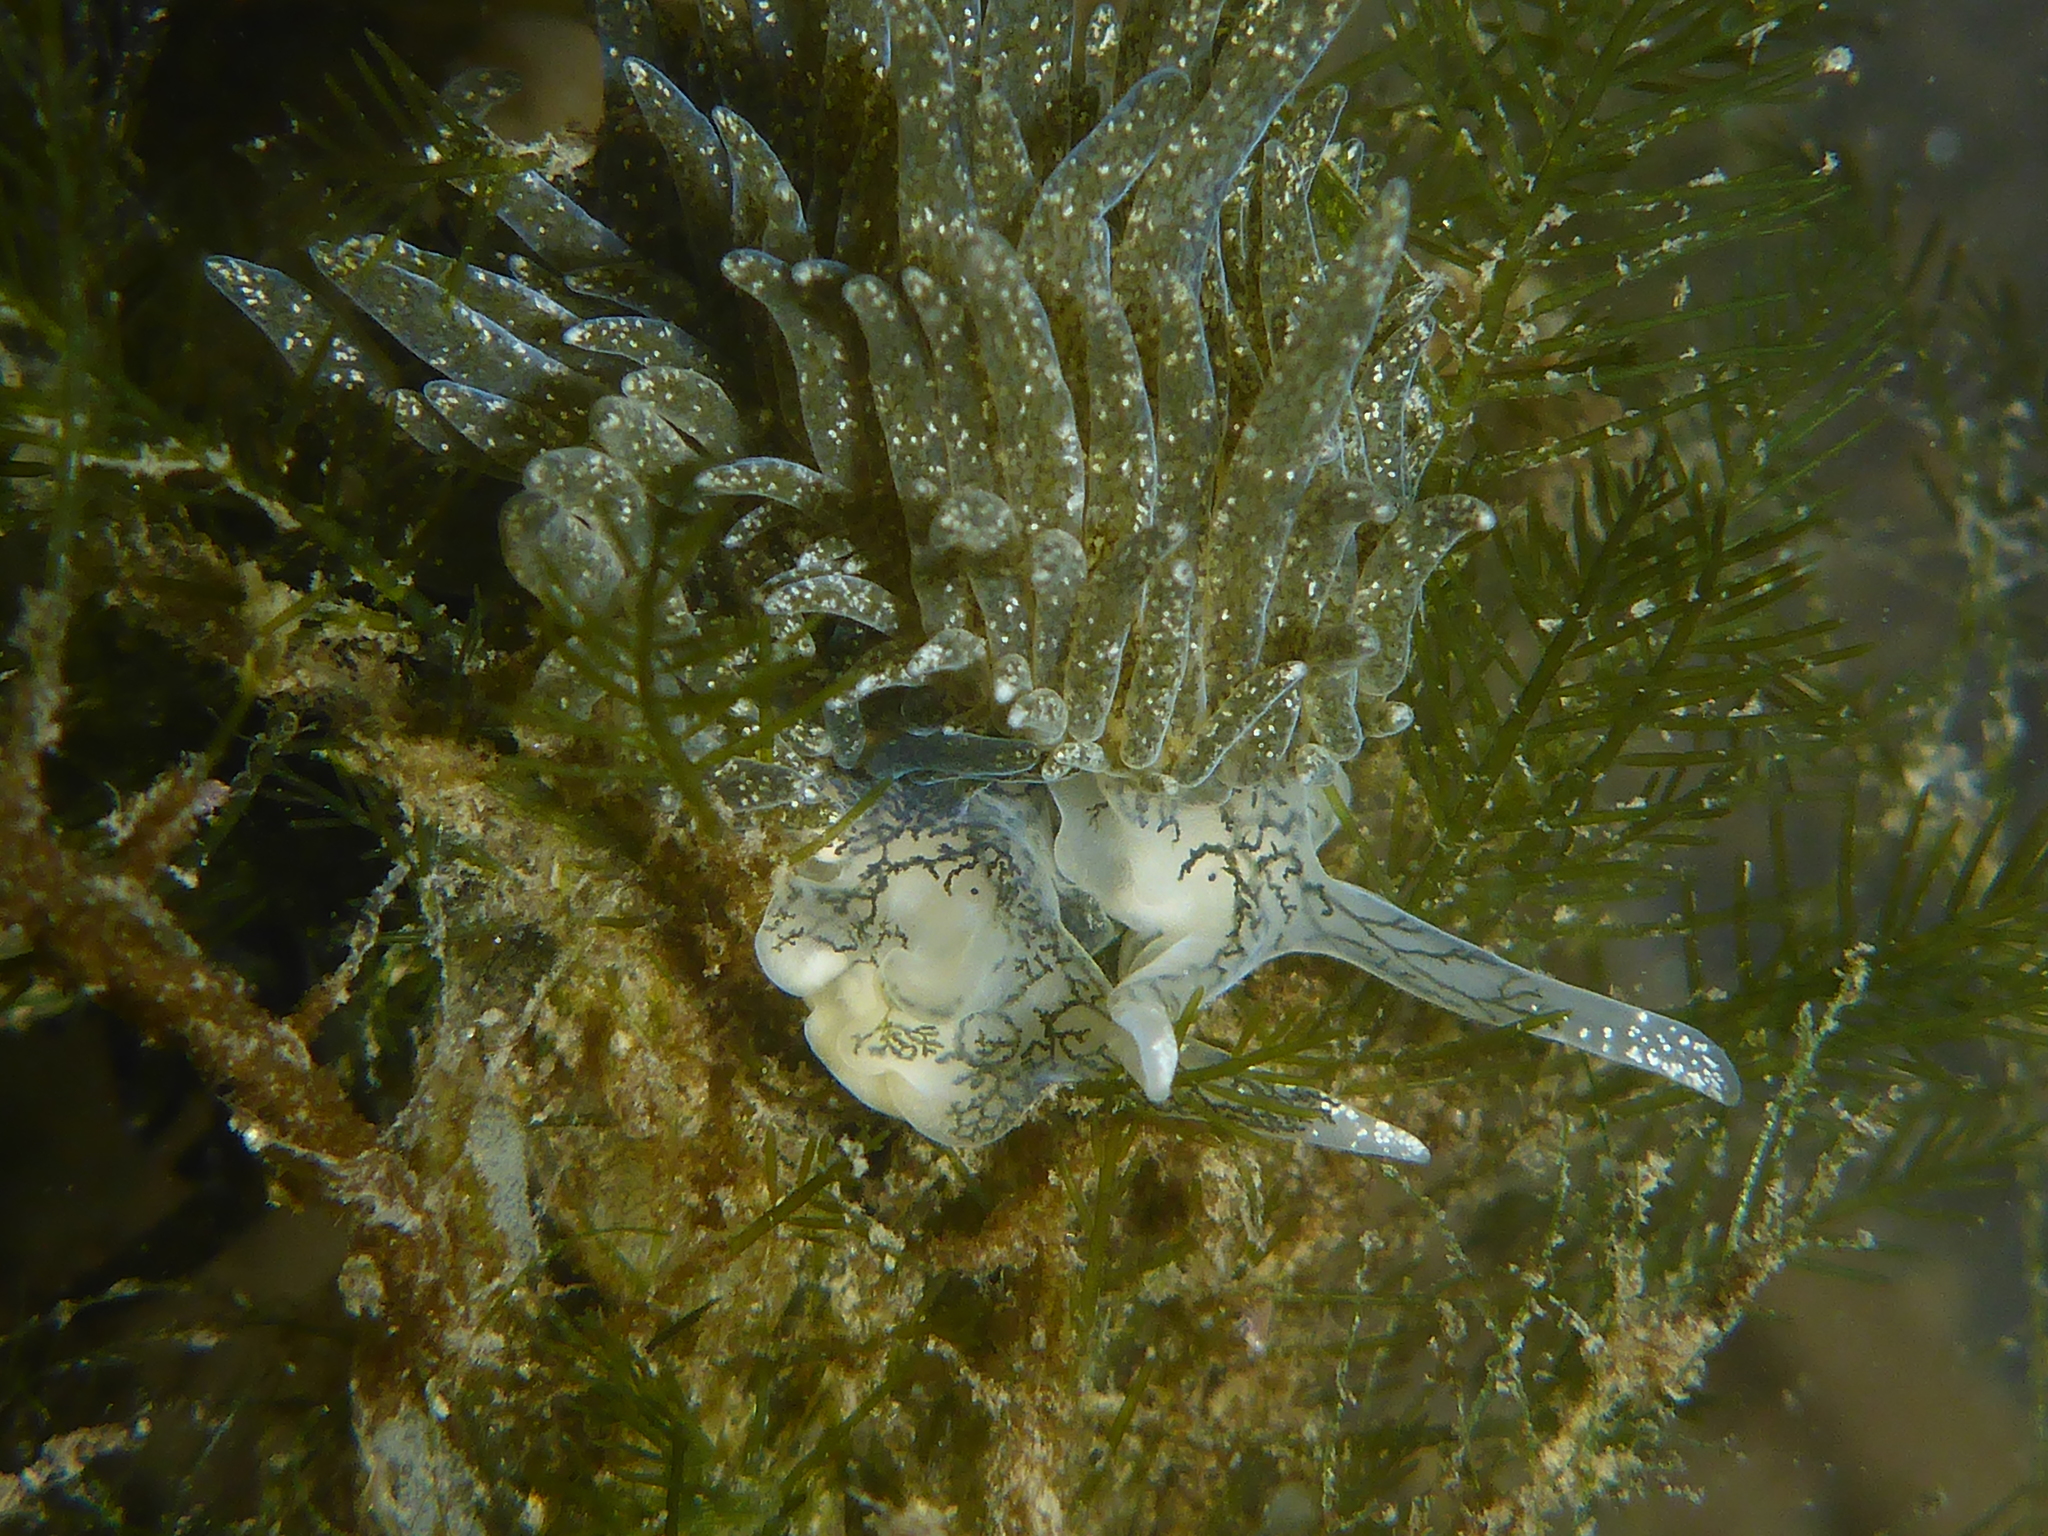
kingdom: Animalia
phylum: Mollusca
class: Gastropoda
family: Limapontiidae
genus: Placida
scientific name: Placida dendritica
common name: Dendritic nudibranch
